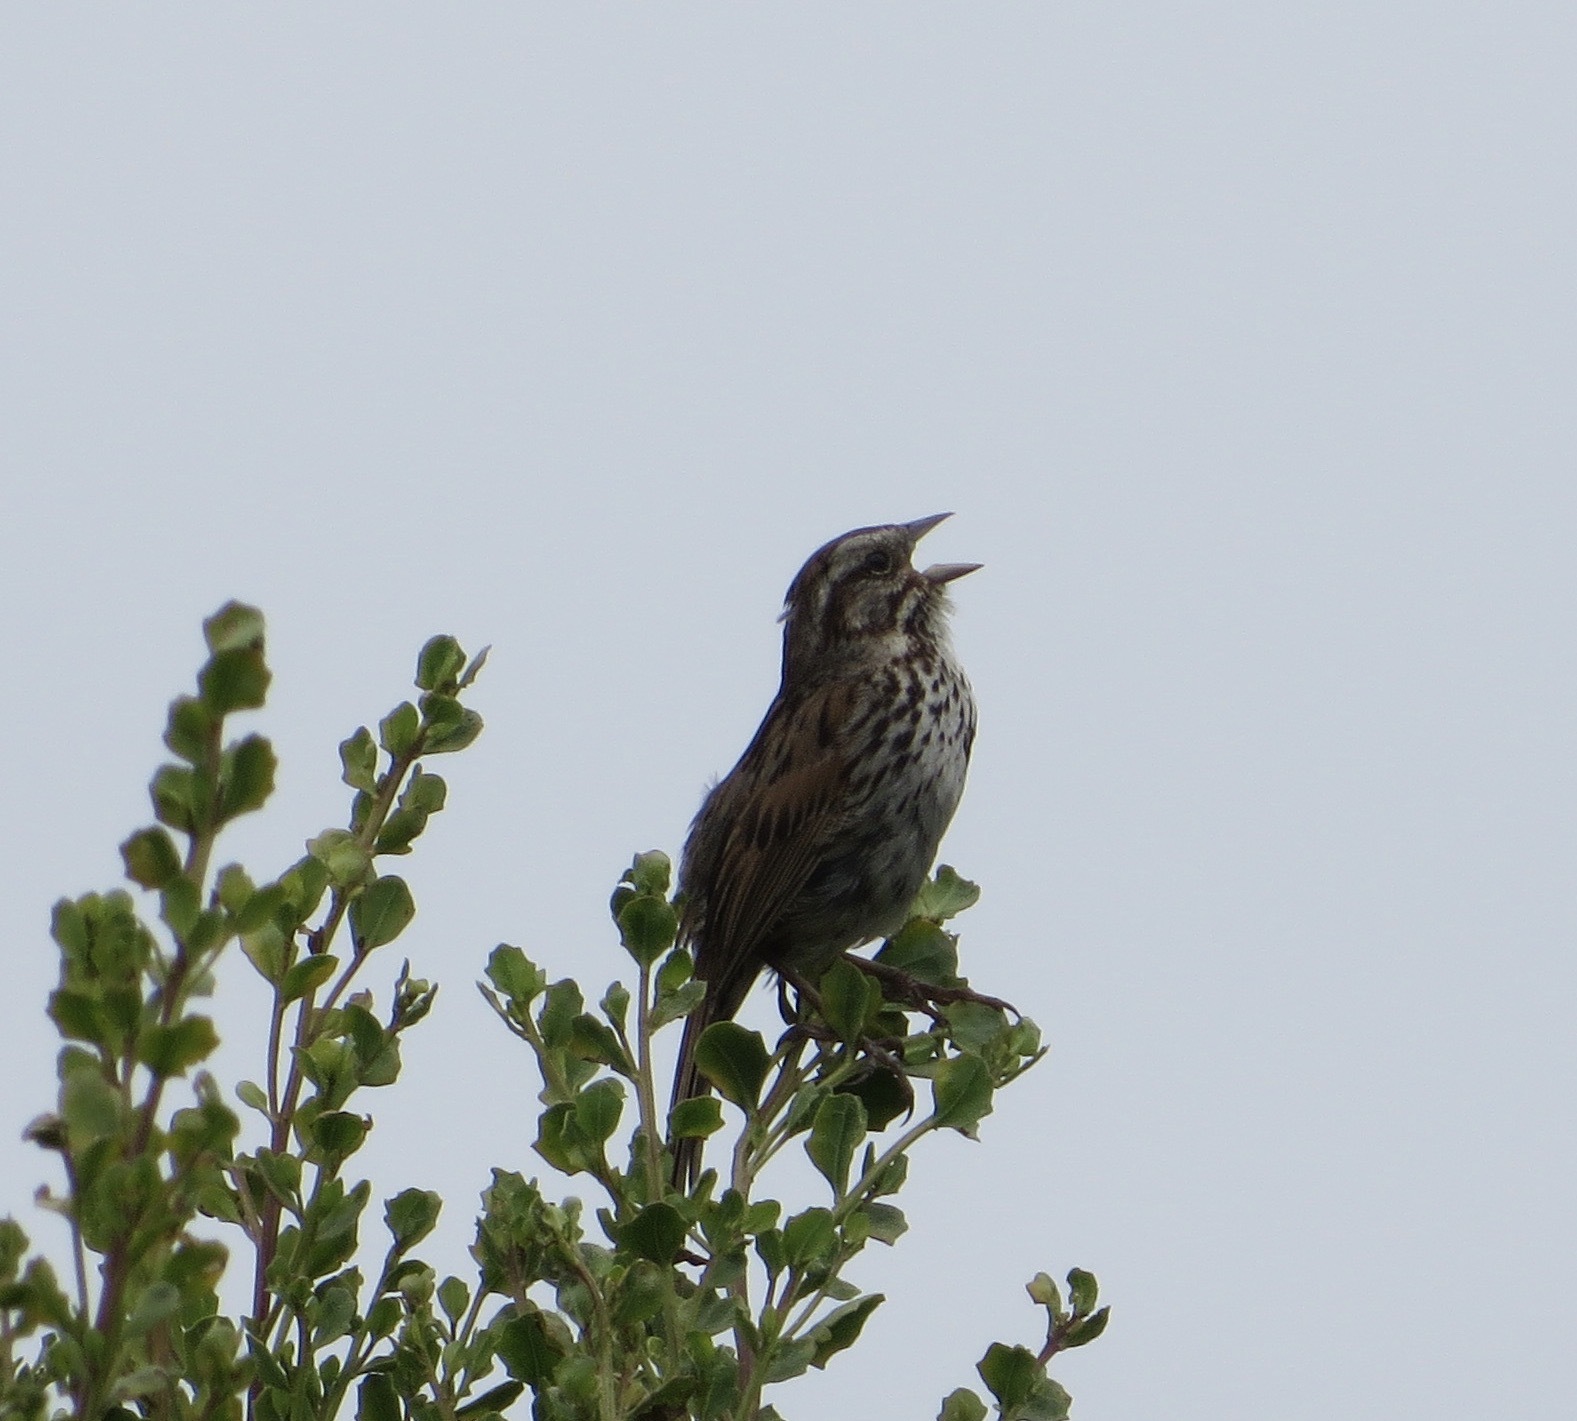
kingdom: Animalia
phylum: Chordata
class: Aves
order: Passeriformes
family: Passerellidae
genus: Melospiza
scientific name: Melospiza melodia
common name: Song sparrow
